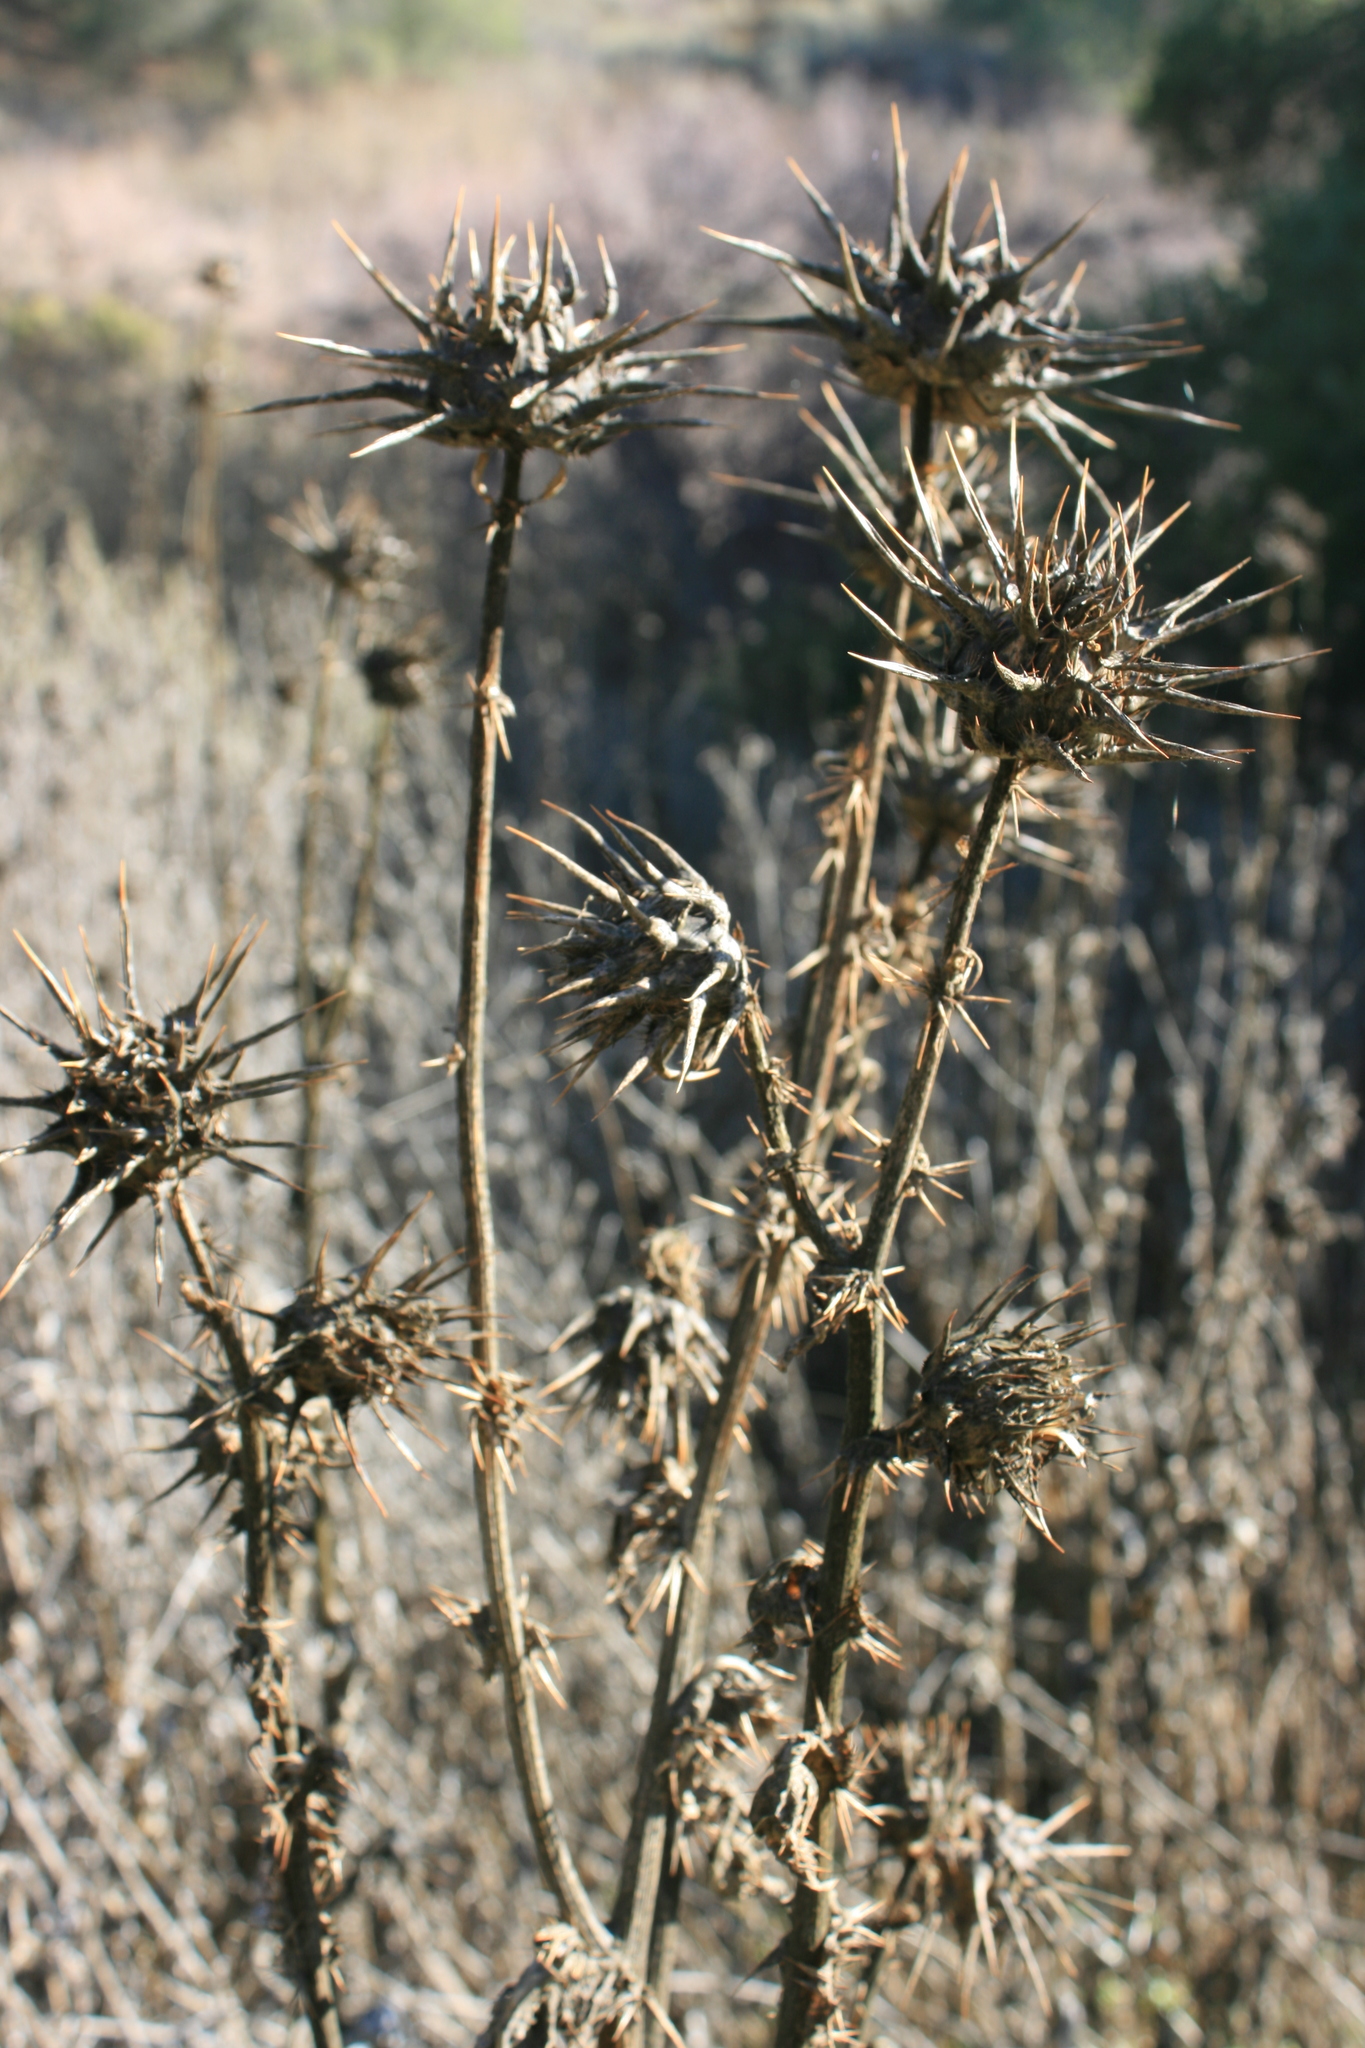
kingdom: Plantae
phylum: Tracheophyta
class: Magnoliopsida
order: Asterales
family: Asteraceae
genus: Silybum
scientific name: Silybum marianum
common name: Milk thistle
